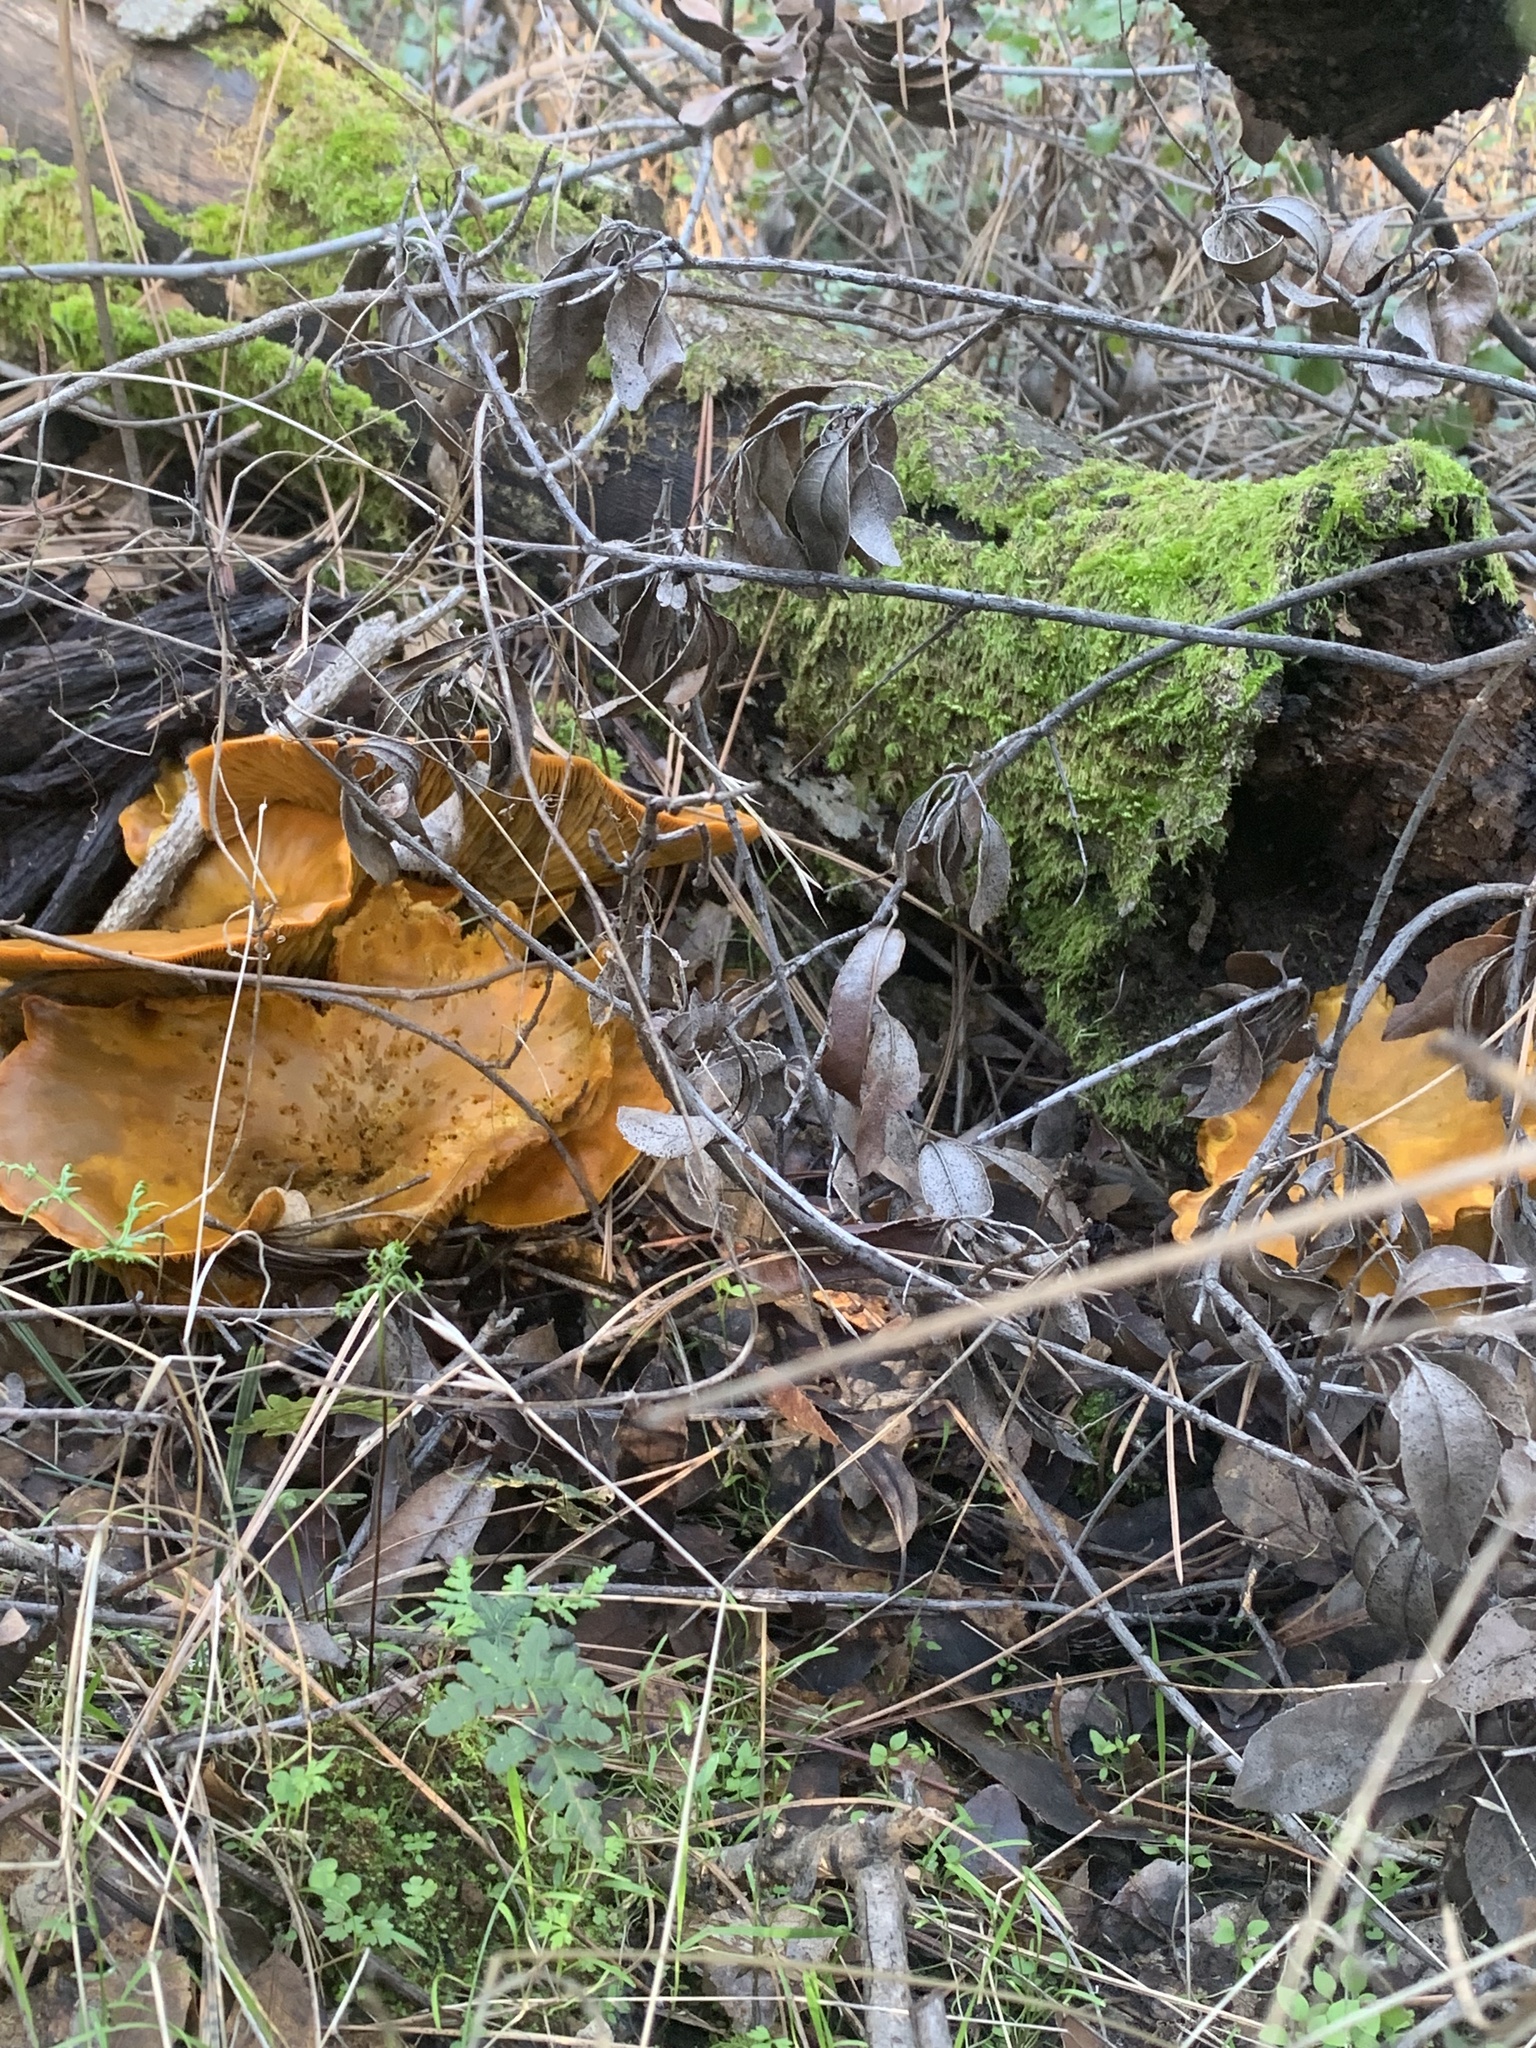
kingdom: Fungi
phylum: Basidiomycota
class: Agaricomycetes
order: Agaricales
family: Omphalotaceae
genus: Omphalotus
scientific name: Omphalotus olivascens
